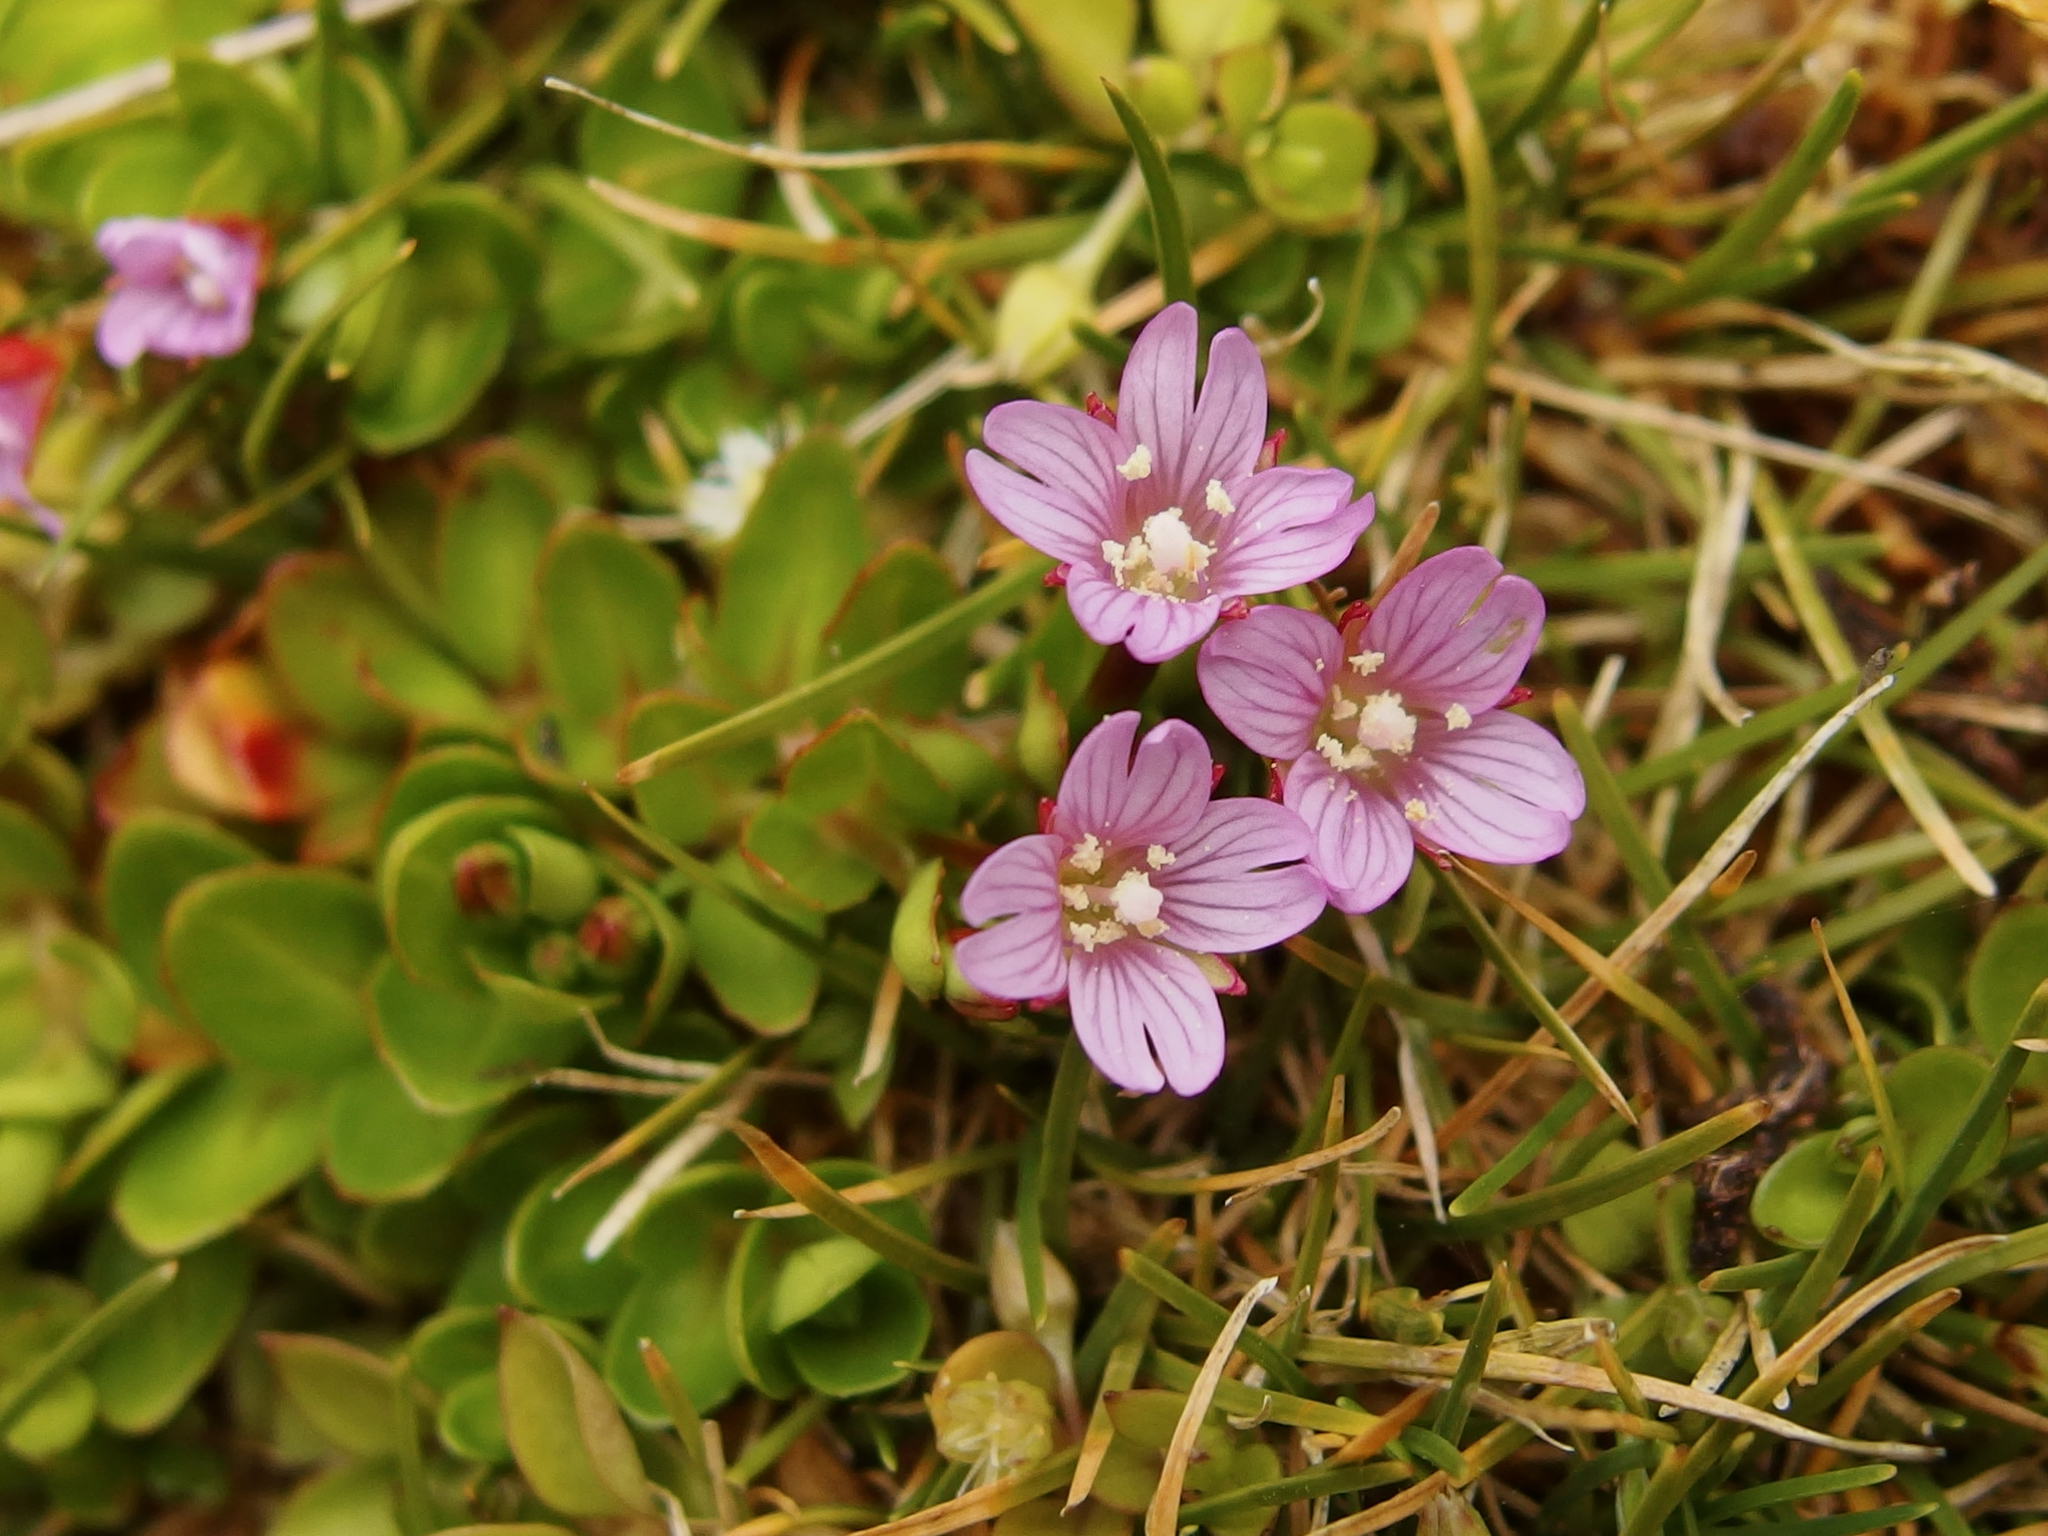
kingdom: Plantae
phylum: Tracheophyta
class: Magnoliopsida
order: Myrtales
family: Onagraceae
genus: Epilobium
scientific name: Epilobium confertifolium
